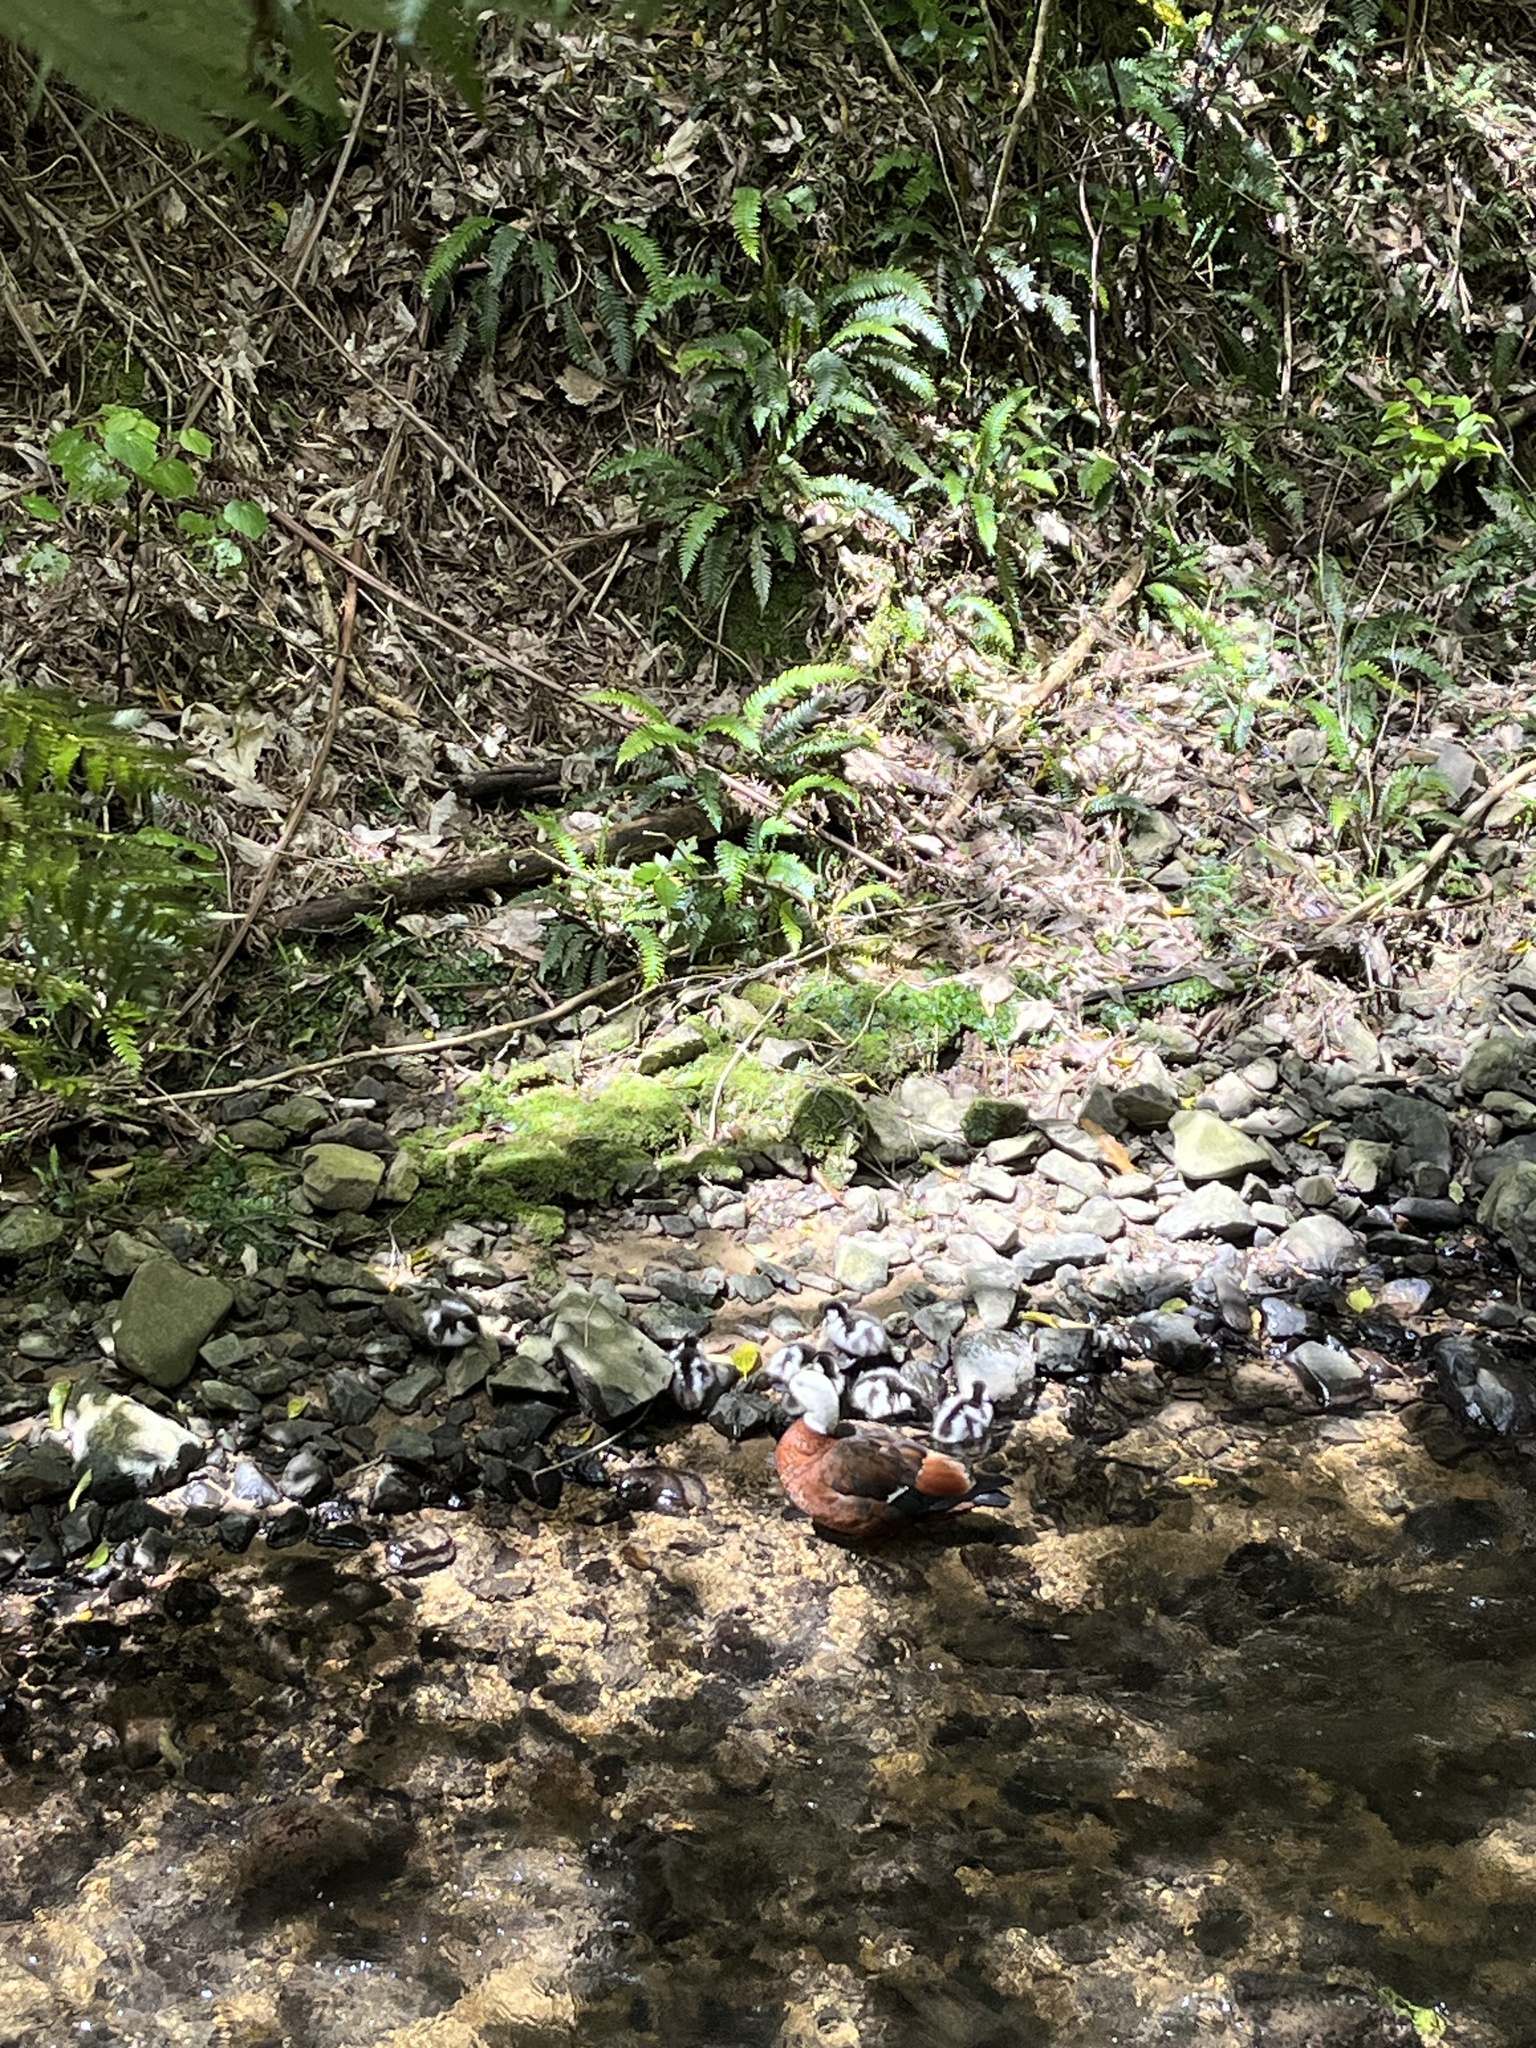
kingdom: Animalia
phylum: Chordata
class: Aves
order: Anseriformes
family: Anatidae
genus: Tadorna
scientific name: Tadorna variegata
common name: Paradise shelduck
